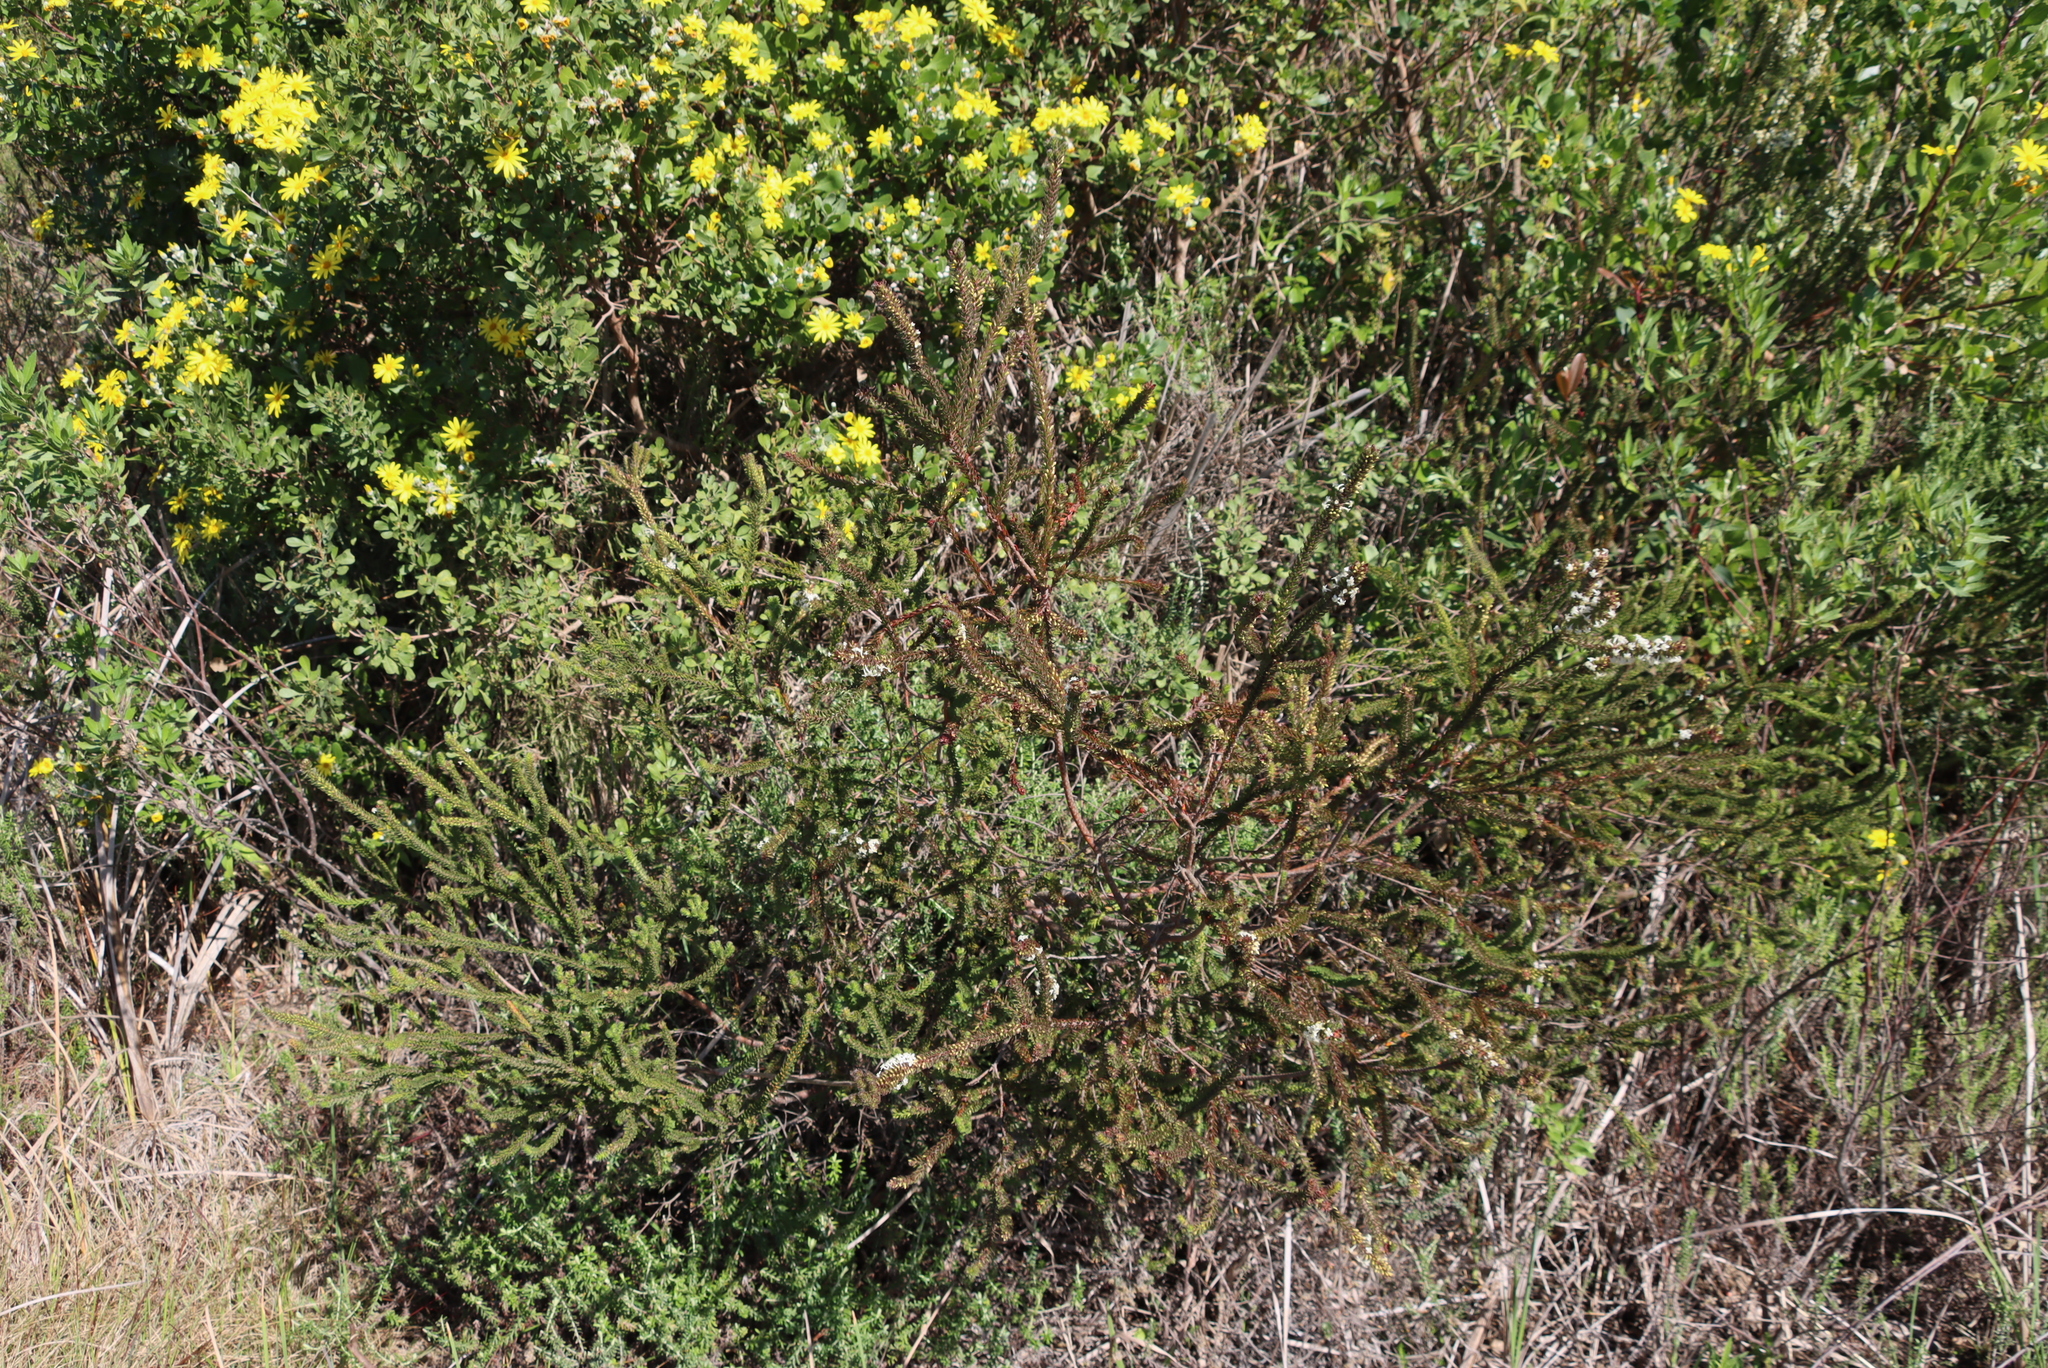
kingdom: Plantae
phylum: Tracheophyta
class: Magnoliopsida
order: Malvales
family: Thymelaeaceae
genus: Struthiola
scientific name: Struthiola hirsuta
